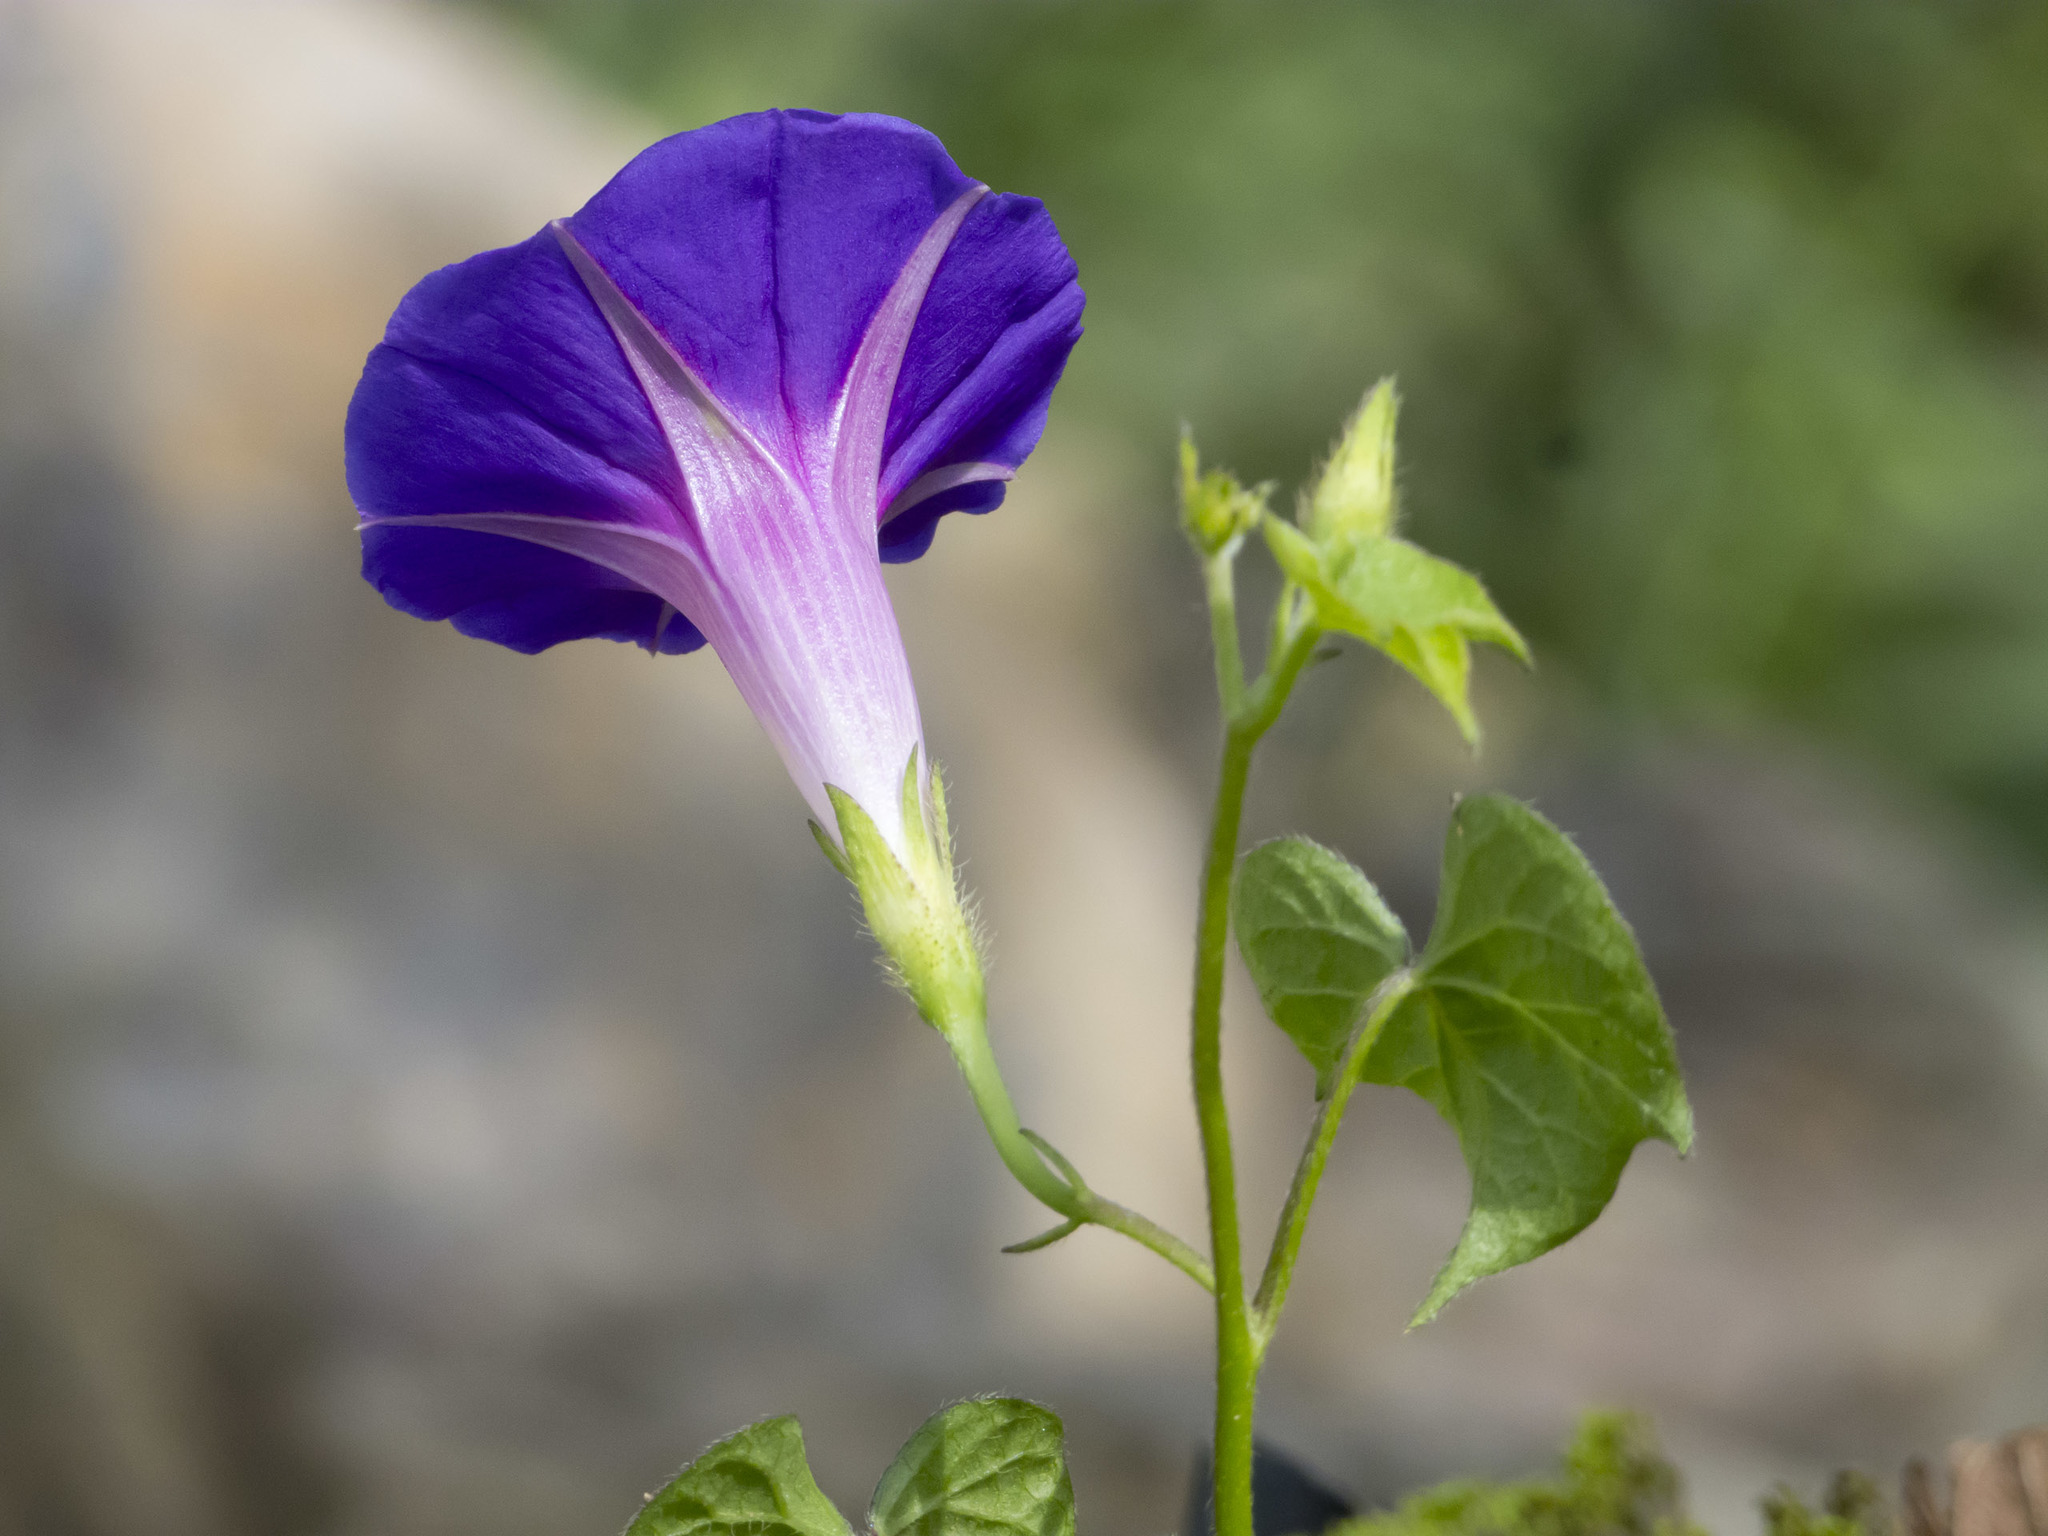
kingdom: Plantae
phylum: Tracheophyta
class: Magnoliopsida
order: Solanales
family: Convolvulaceae
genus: Ipomoea
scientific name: Ipomoea purpurea
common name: Common morning-glory
